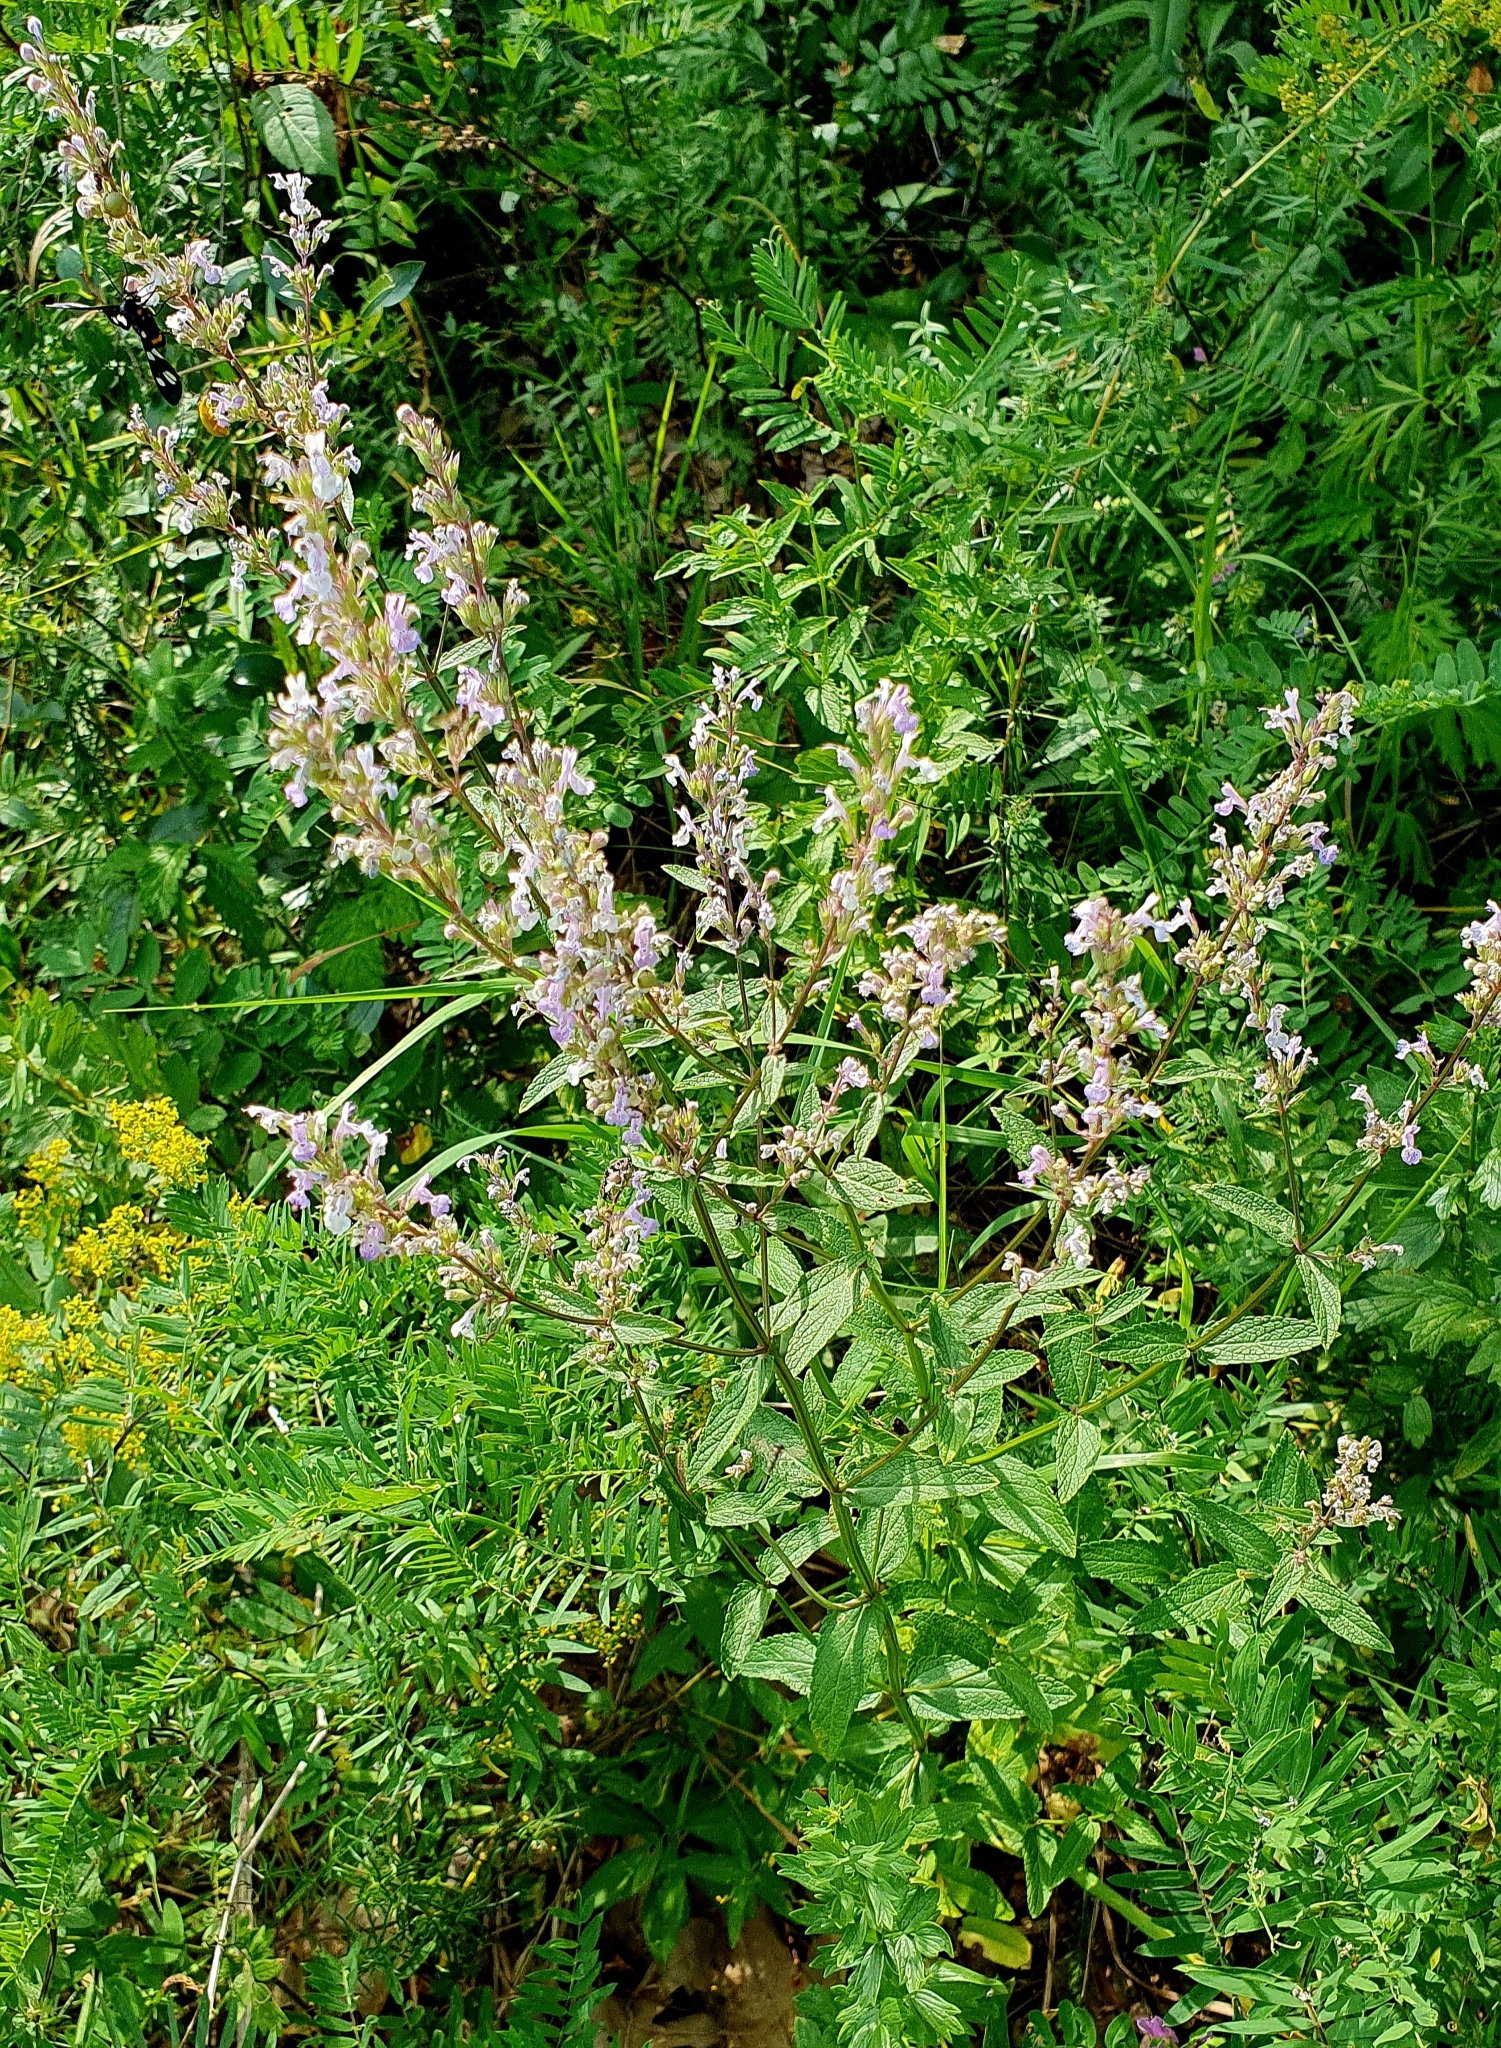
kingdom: Plantae
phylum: Tracheophyta
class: Magnoliopsida
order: Lamiales
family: Lamiaceae
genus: Nepeta
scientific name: Nepeta nuda
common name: Hairless catmint
